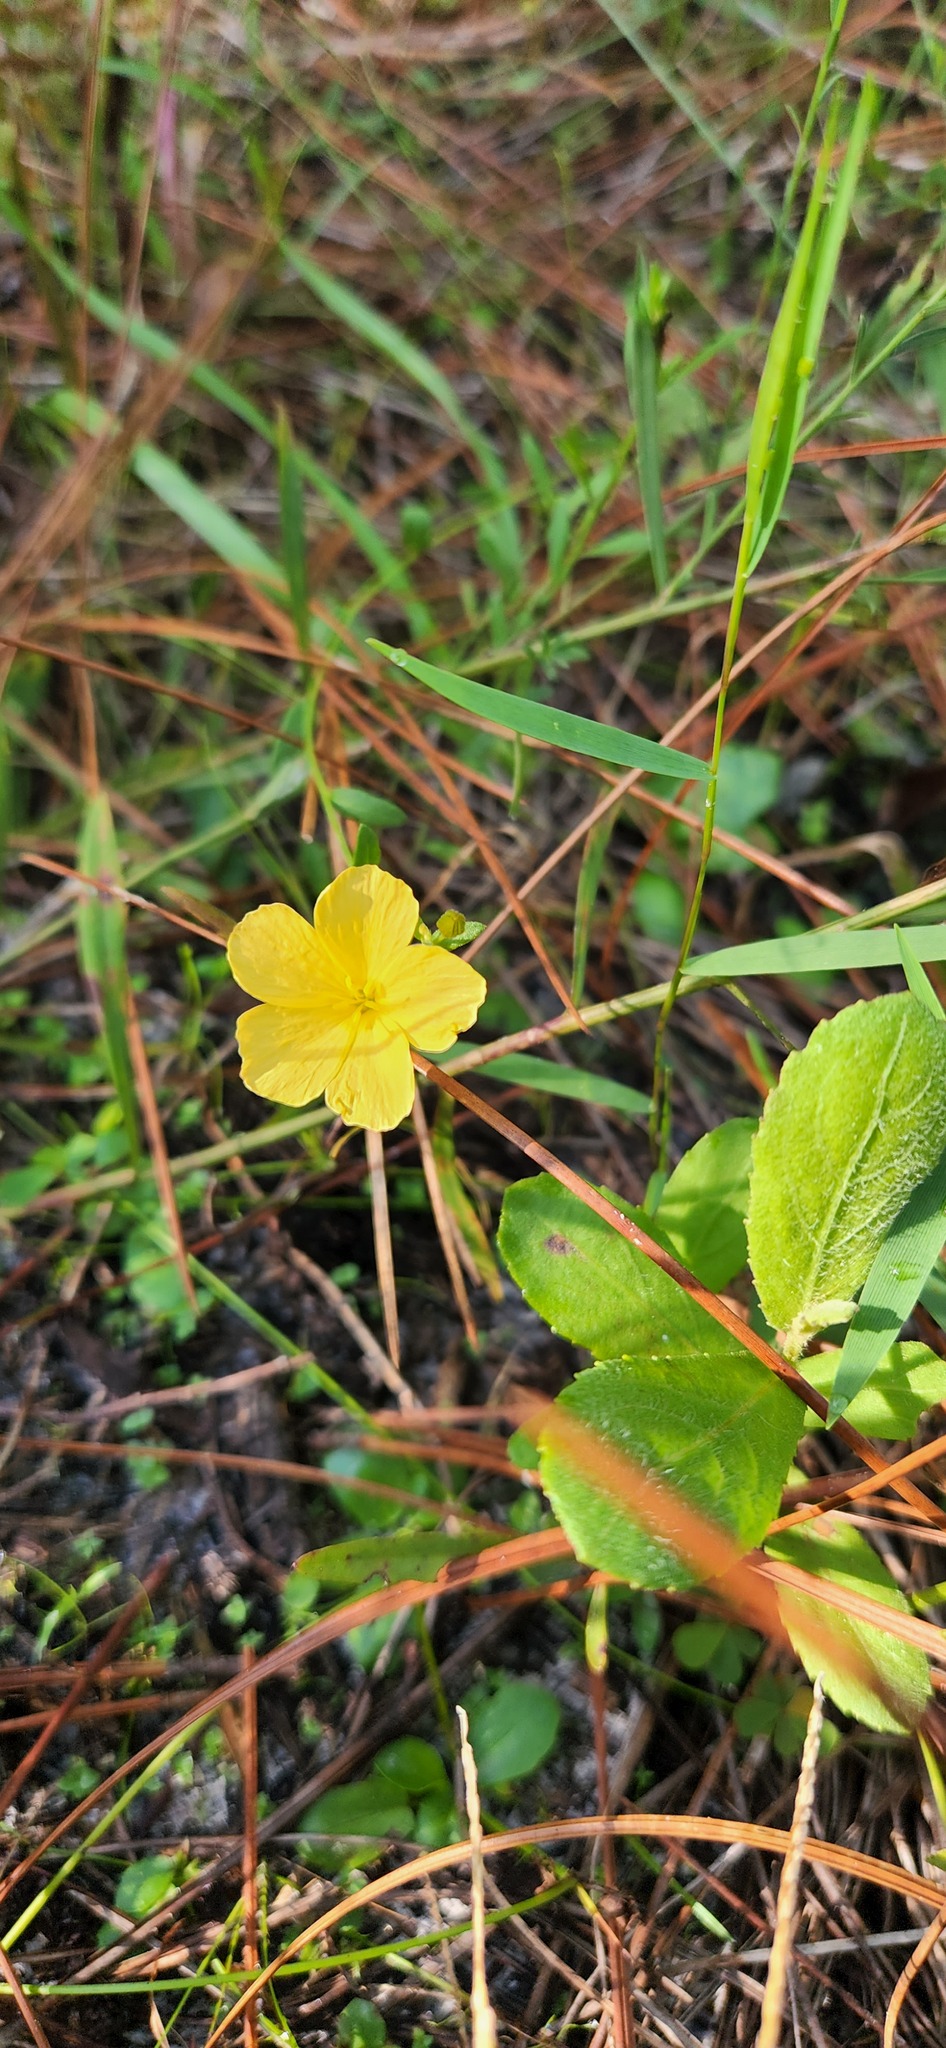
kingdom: Plantae
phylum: Tracheophyta
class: Magnoliopsida
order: Malpighiales
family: Turneraceae
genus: Piriqueta
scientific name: Piriqueta cistoides
